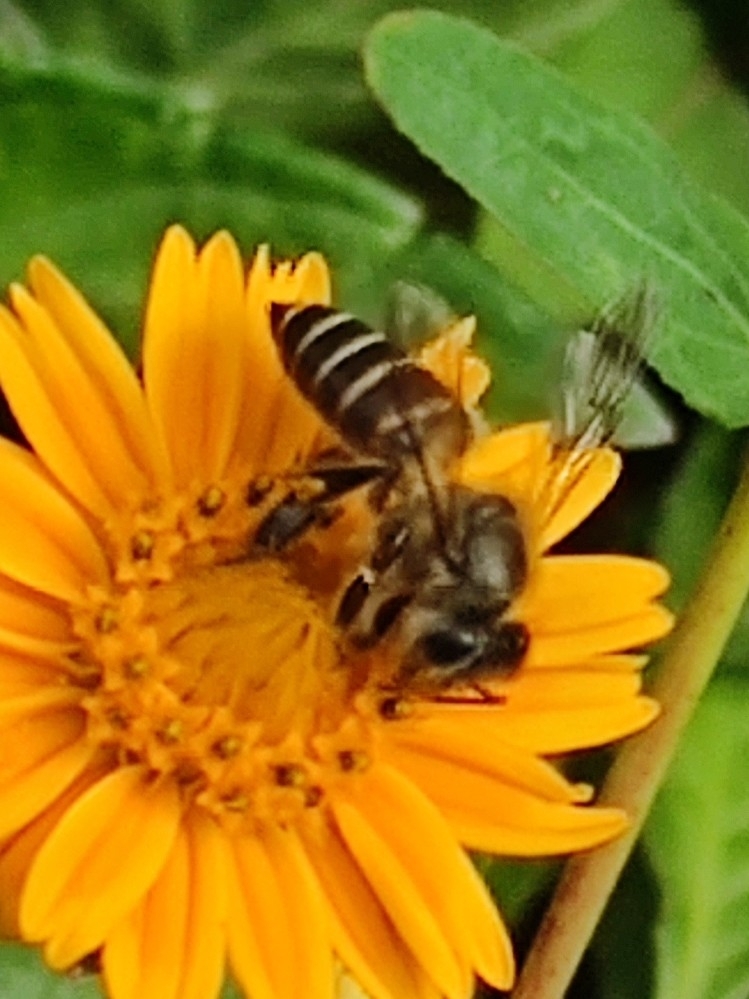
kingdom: Animalia
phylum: Arthropoda
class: Insecta
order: Hymenoptera
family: Apidae
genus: Apis
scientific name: Apis cerana
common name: Honey bee
